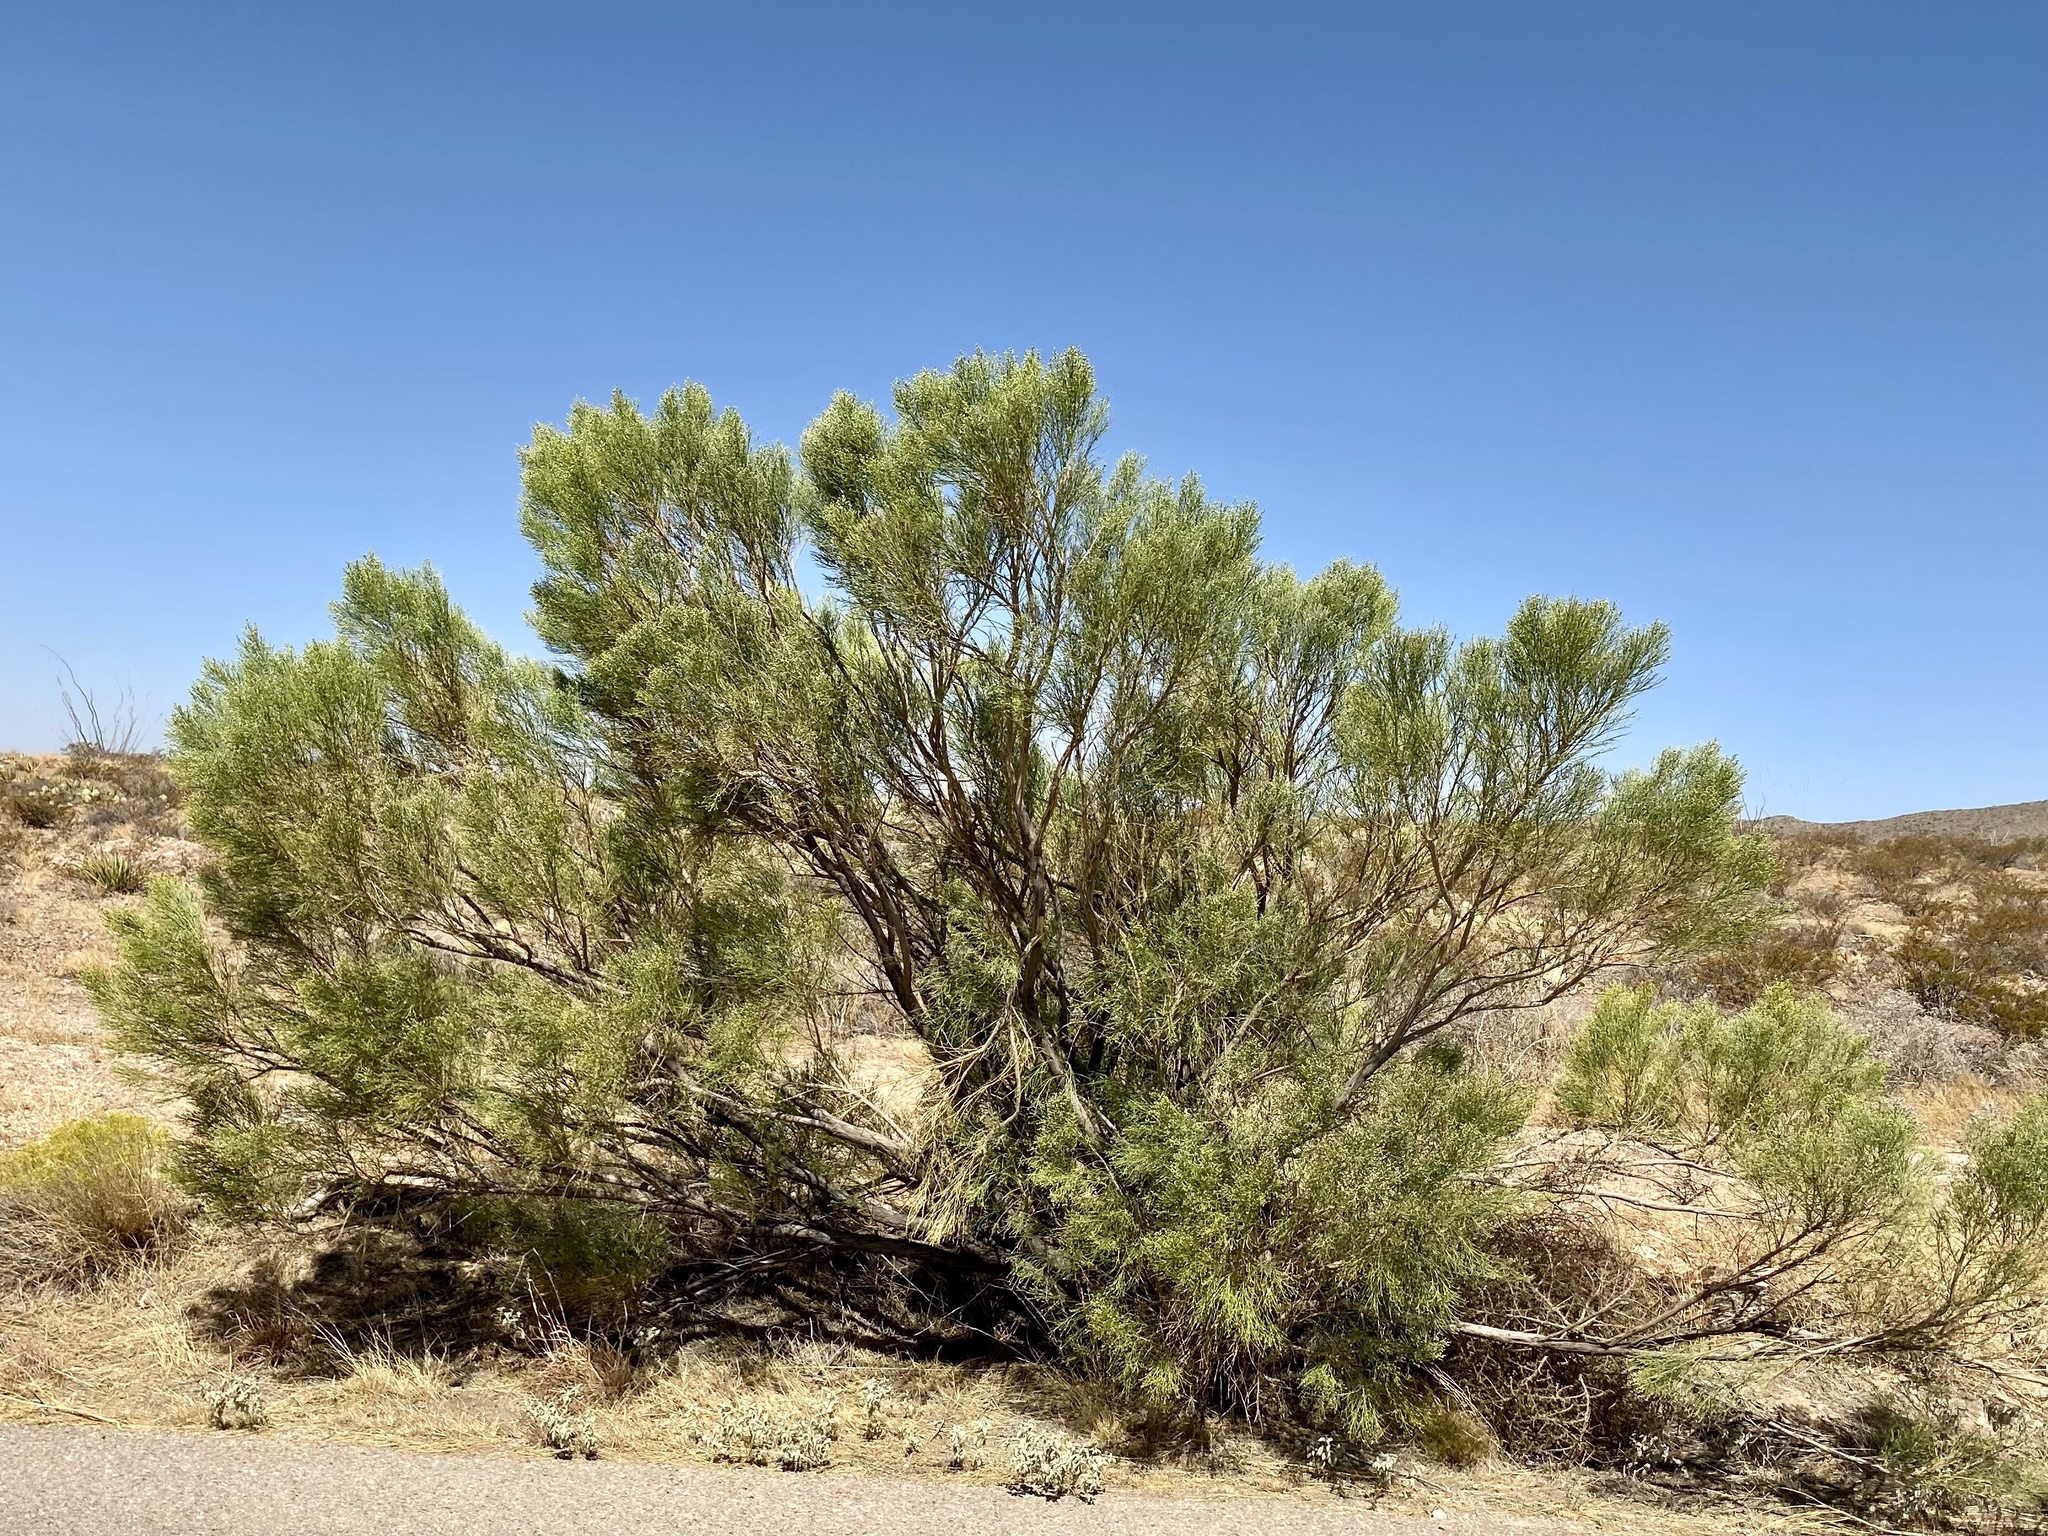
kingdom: Plantae
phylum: Tracheophyta
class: Magnoliopsida
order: Asterales
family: Asteraceae
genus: Baccharis
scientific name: Baccharis sarothroides
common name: Desert-broom
